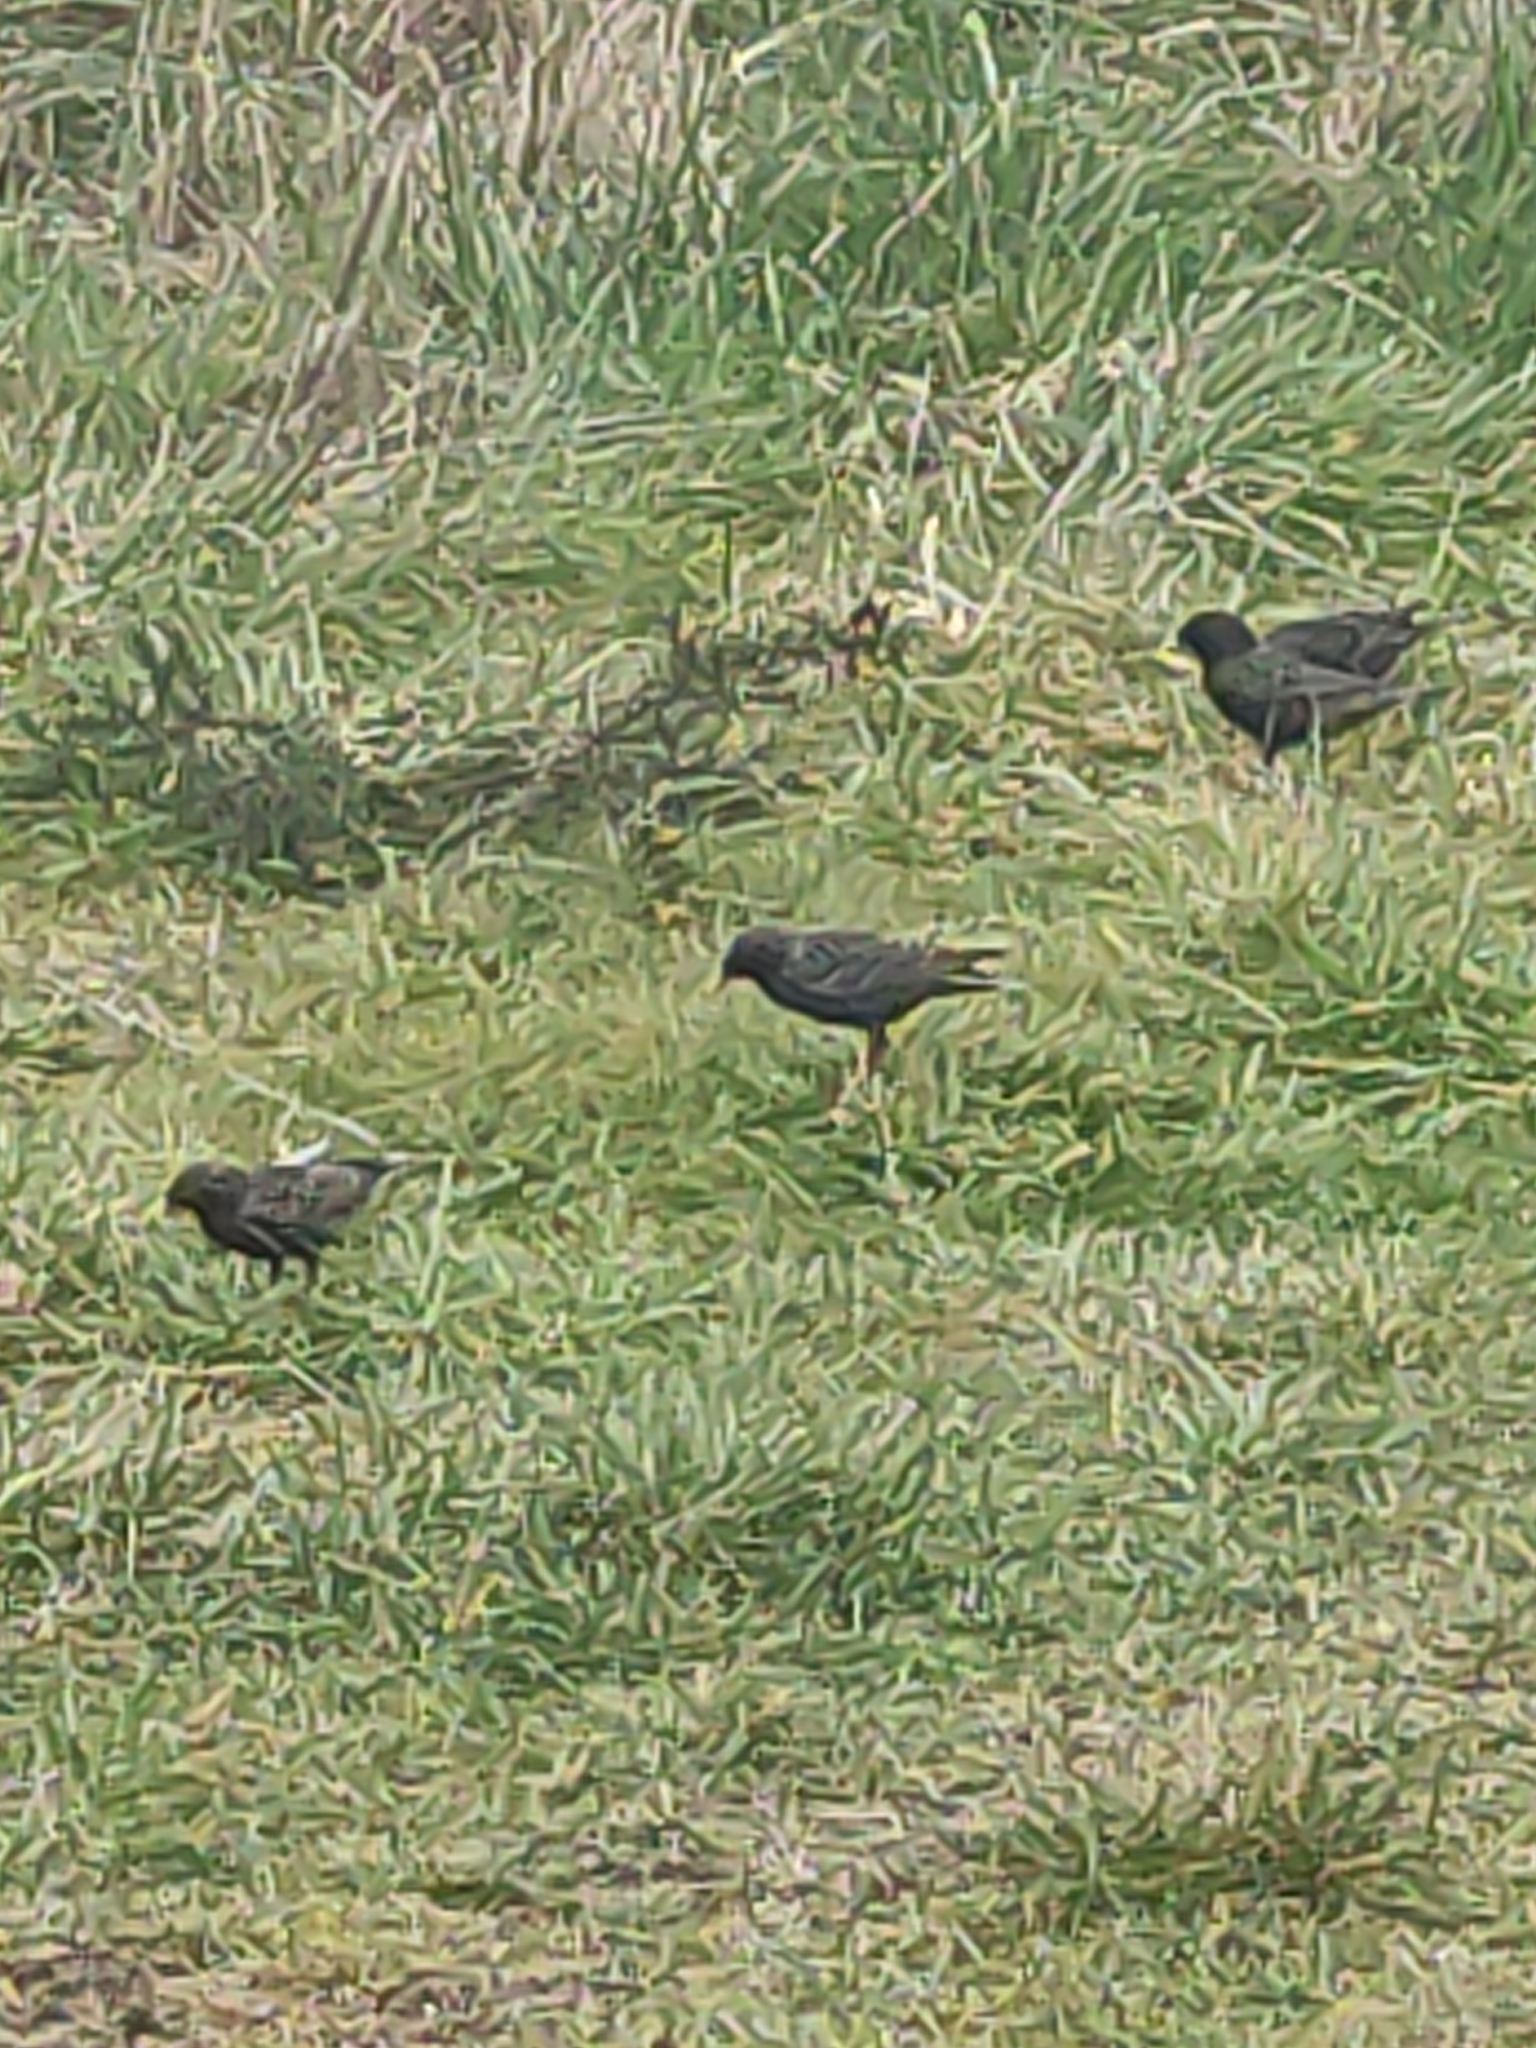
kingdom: Animalia
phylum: Chordata
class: Aves
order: Passeriformes
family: Sturnidae
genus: Sturnus
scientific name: Sturnus vulgaris
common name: Common starling
